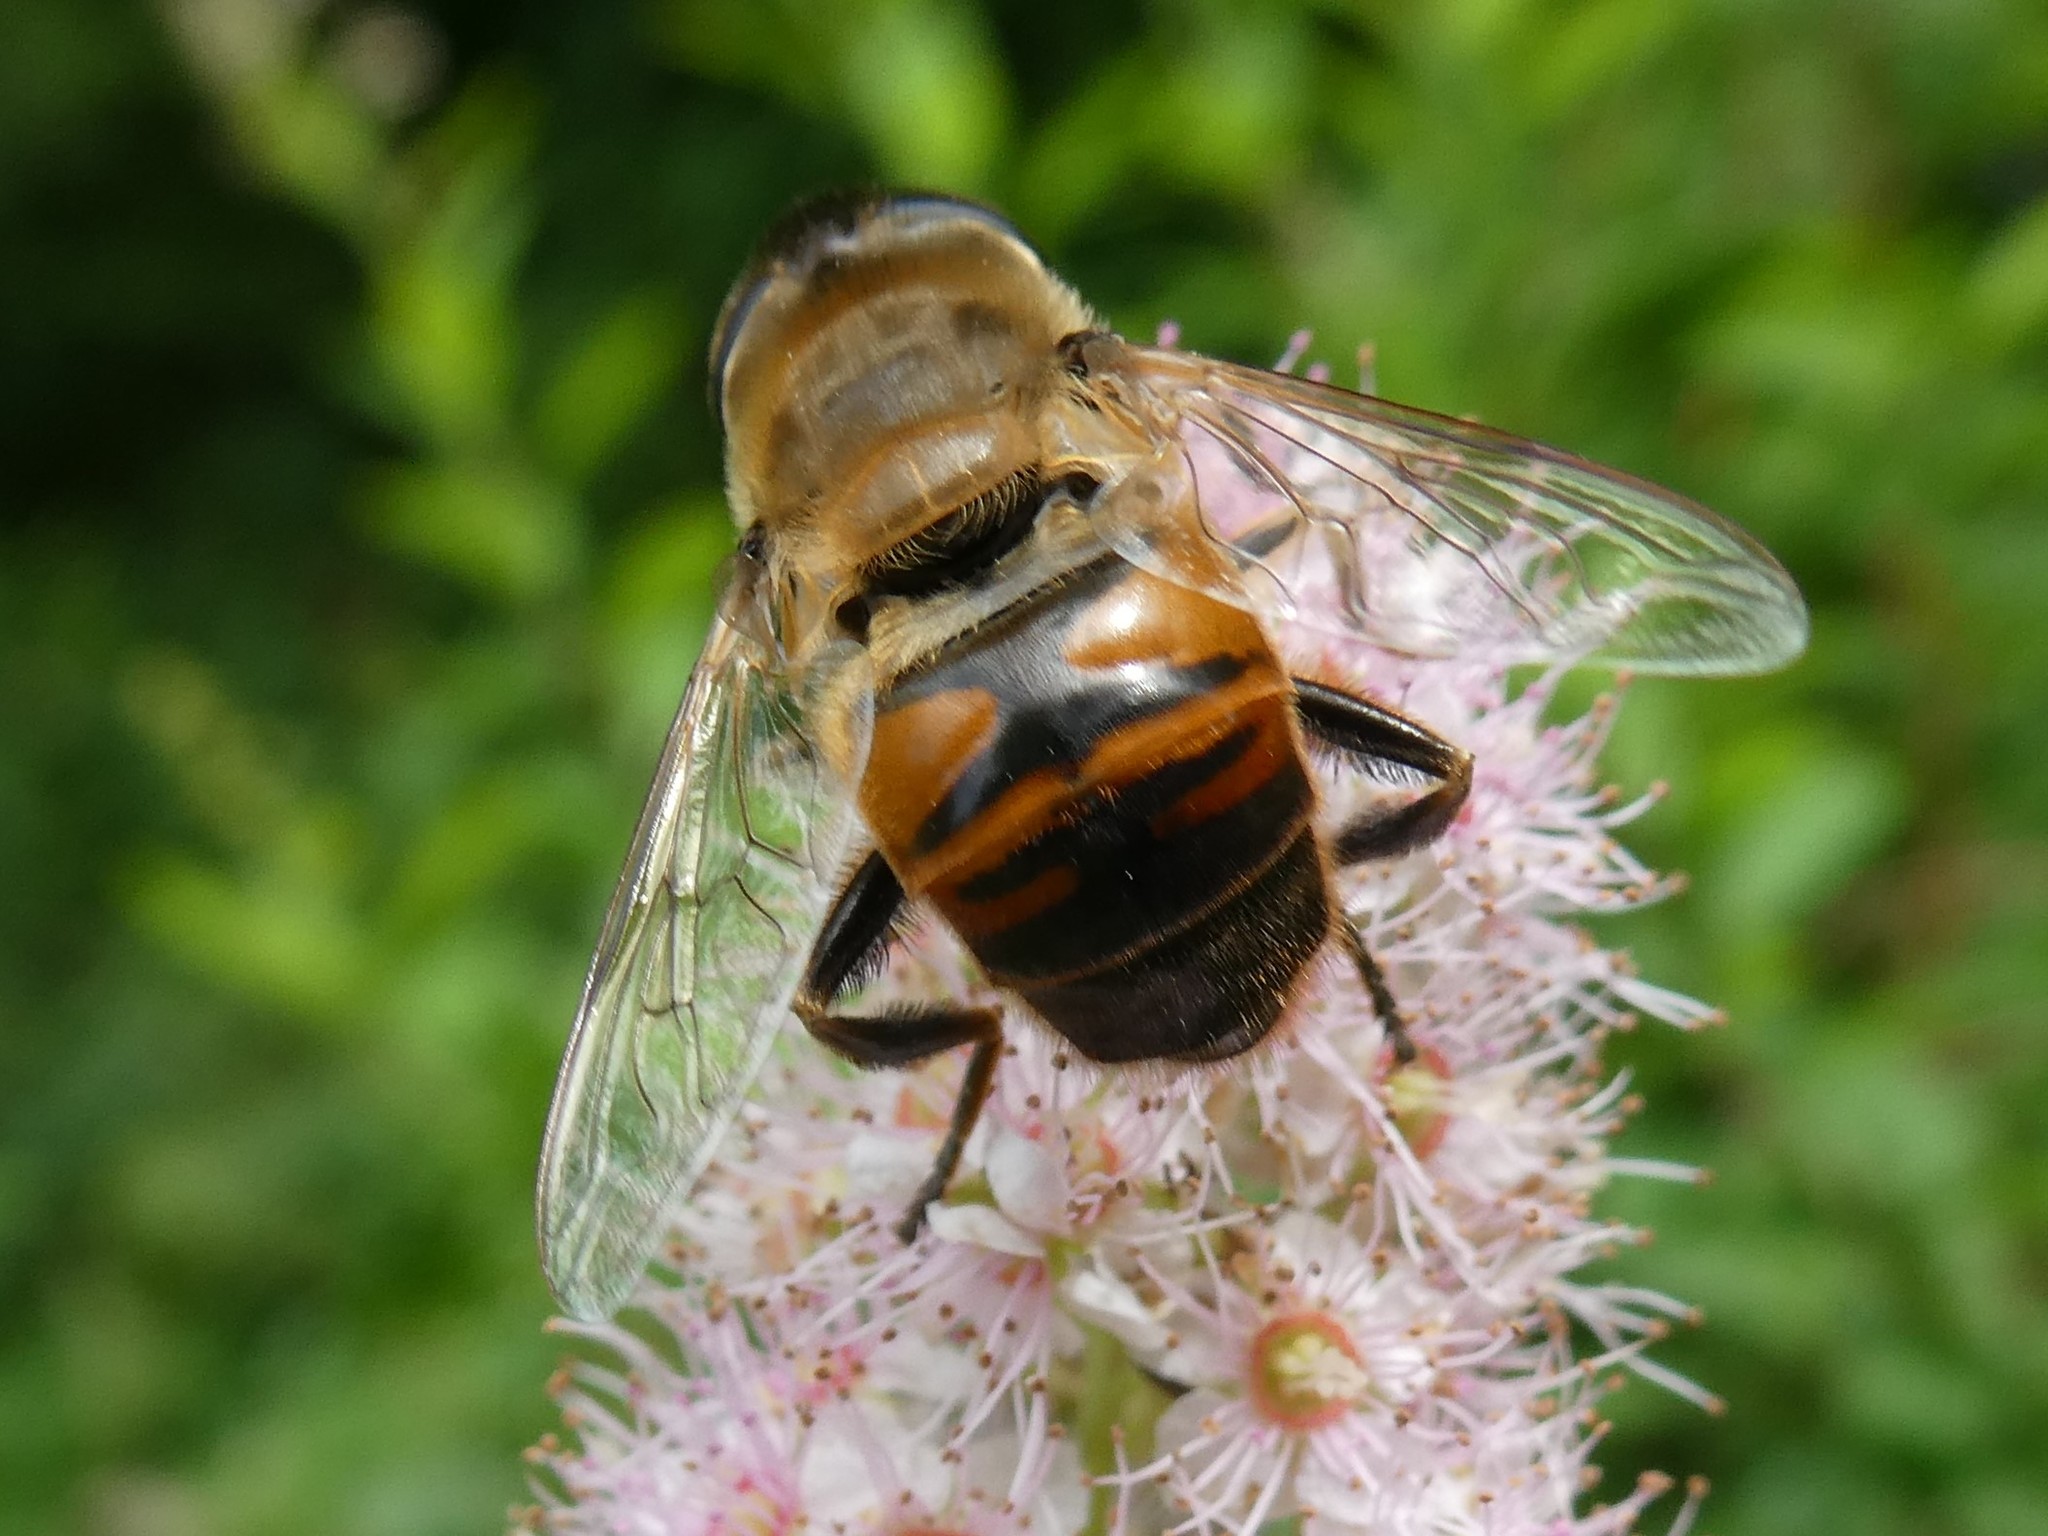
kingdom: Animalia
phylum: Arthropoda
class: Insecta
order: Diptera
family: Syrphidae
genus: Eristalis
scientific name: Eristalis tenax
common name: Drone fly
